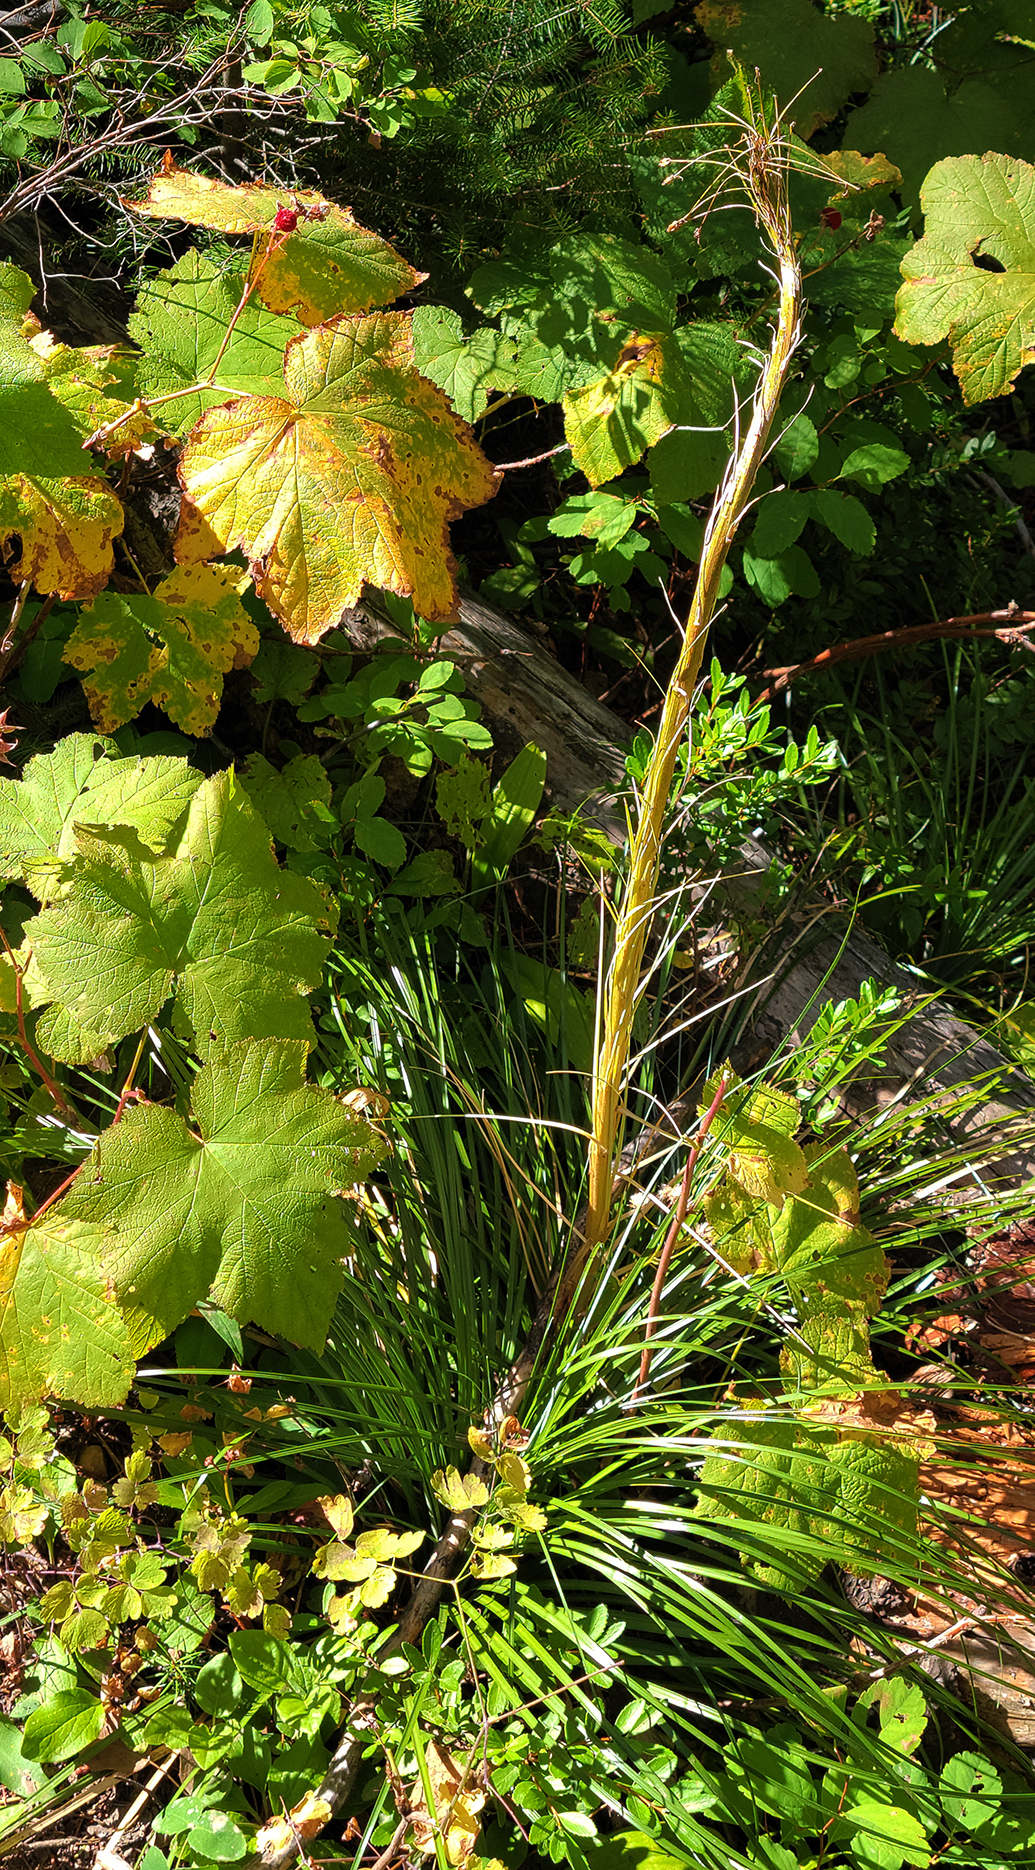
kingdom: Plantae
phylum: Tracheophyta
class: Liliopsida
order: Liliales
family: Melanthiaceae
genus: Xerophyllum
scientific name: Xerophyllum tenax
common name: Bear-grass
